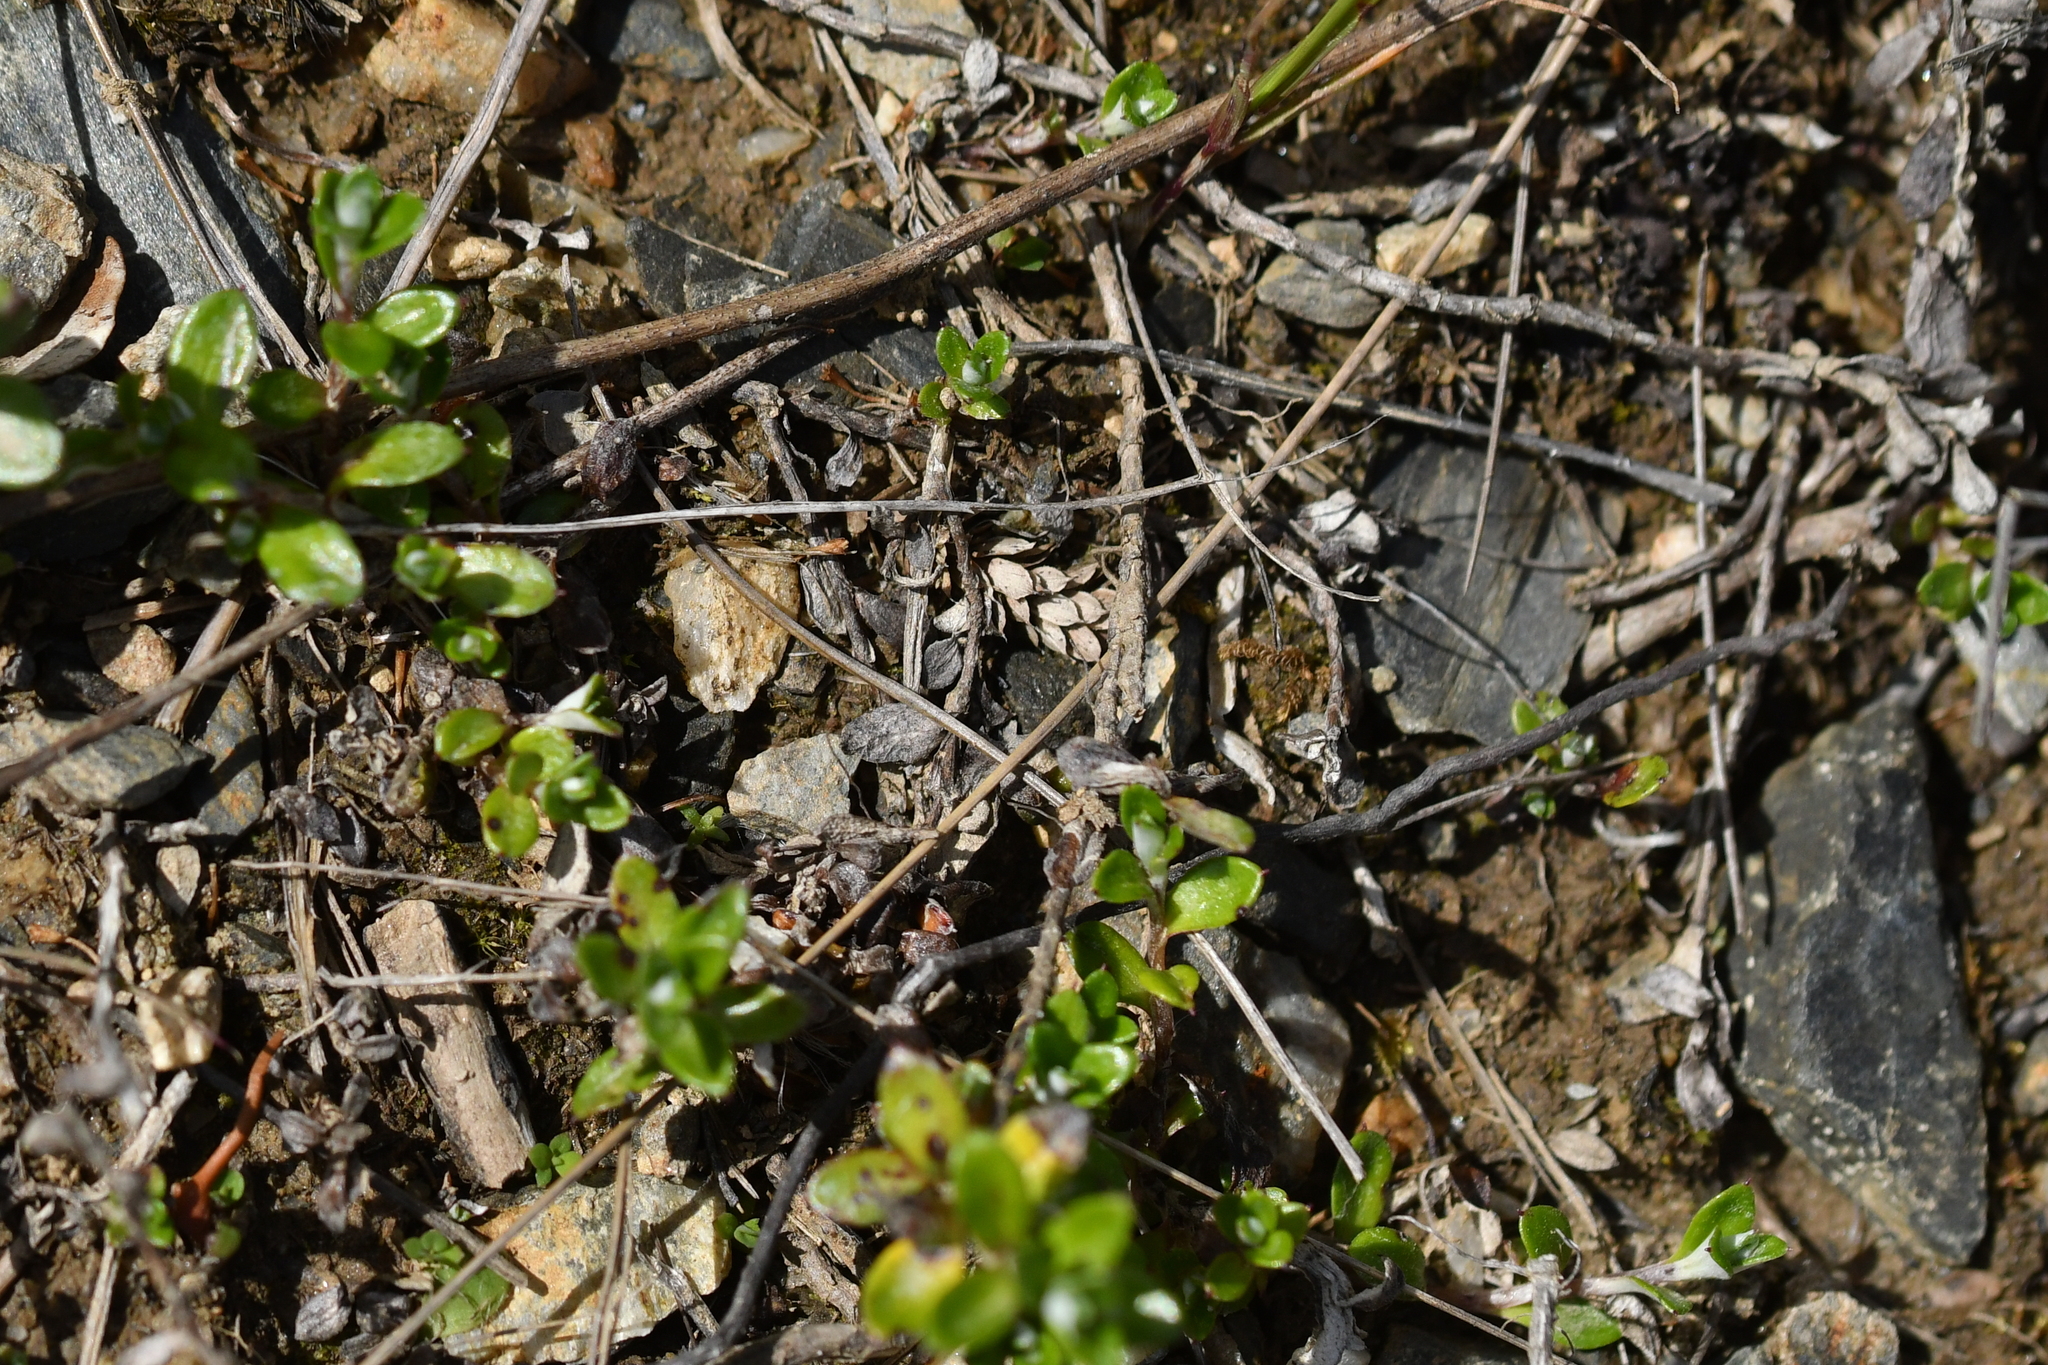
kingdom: Plantae
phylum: Tracheophyta
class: Magnoliopsida
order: Asterales
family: Asteraceae
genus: Anaphalioides
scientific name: Anaphalioides bellidioides
